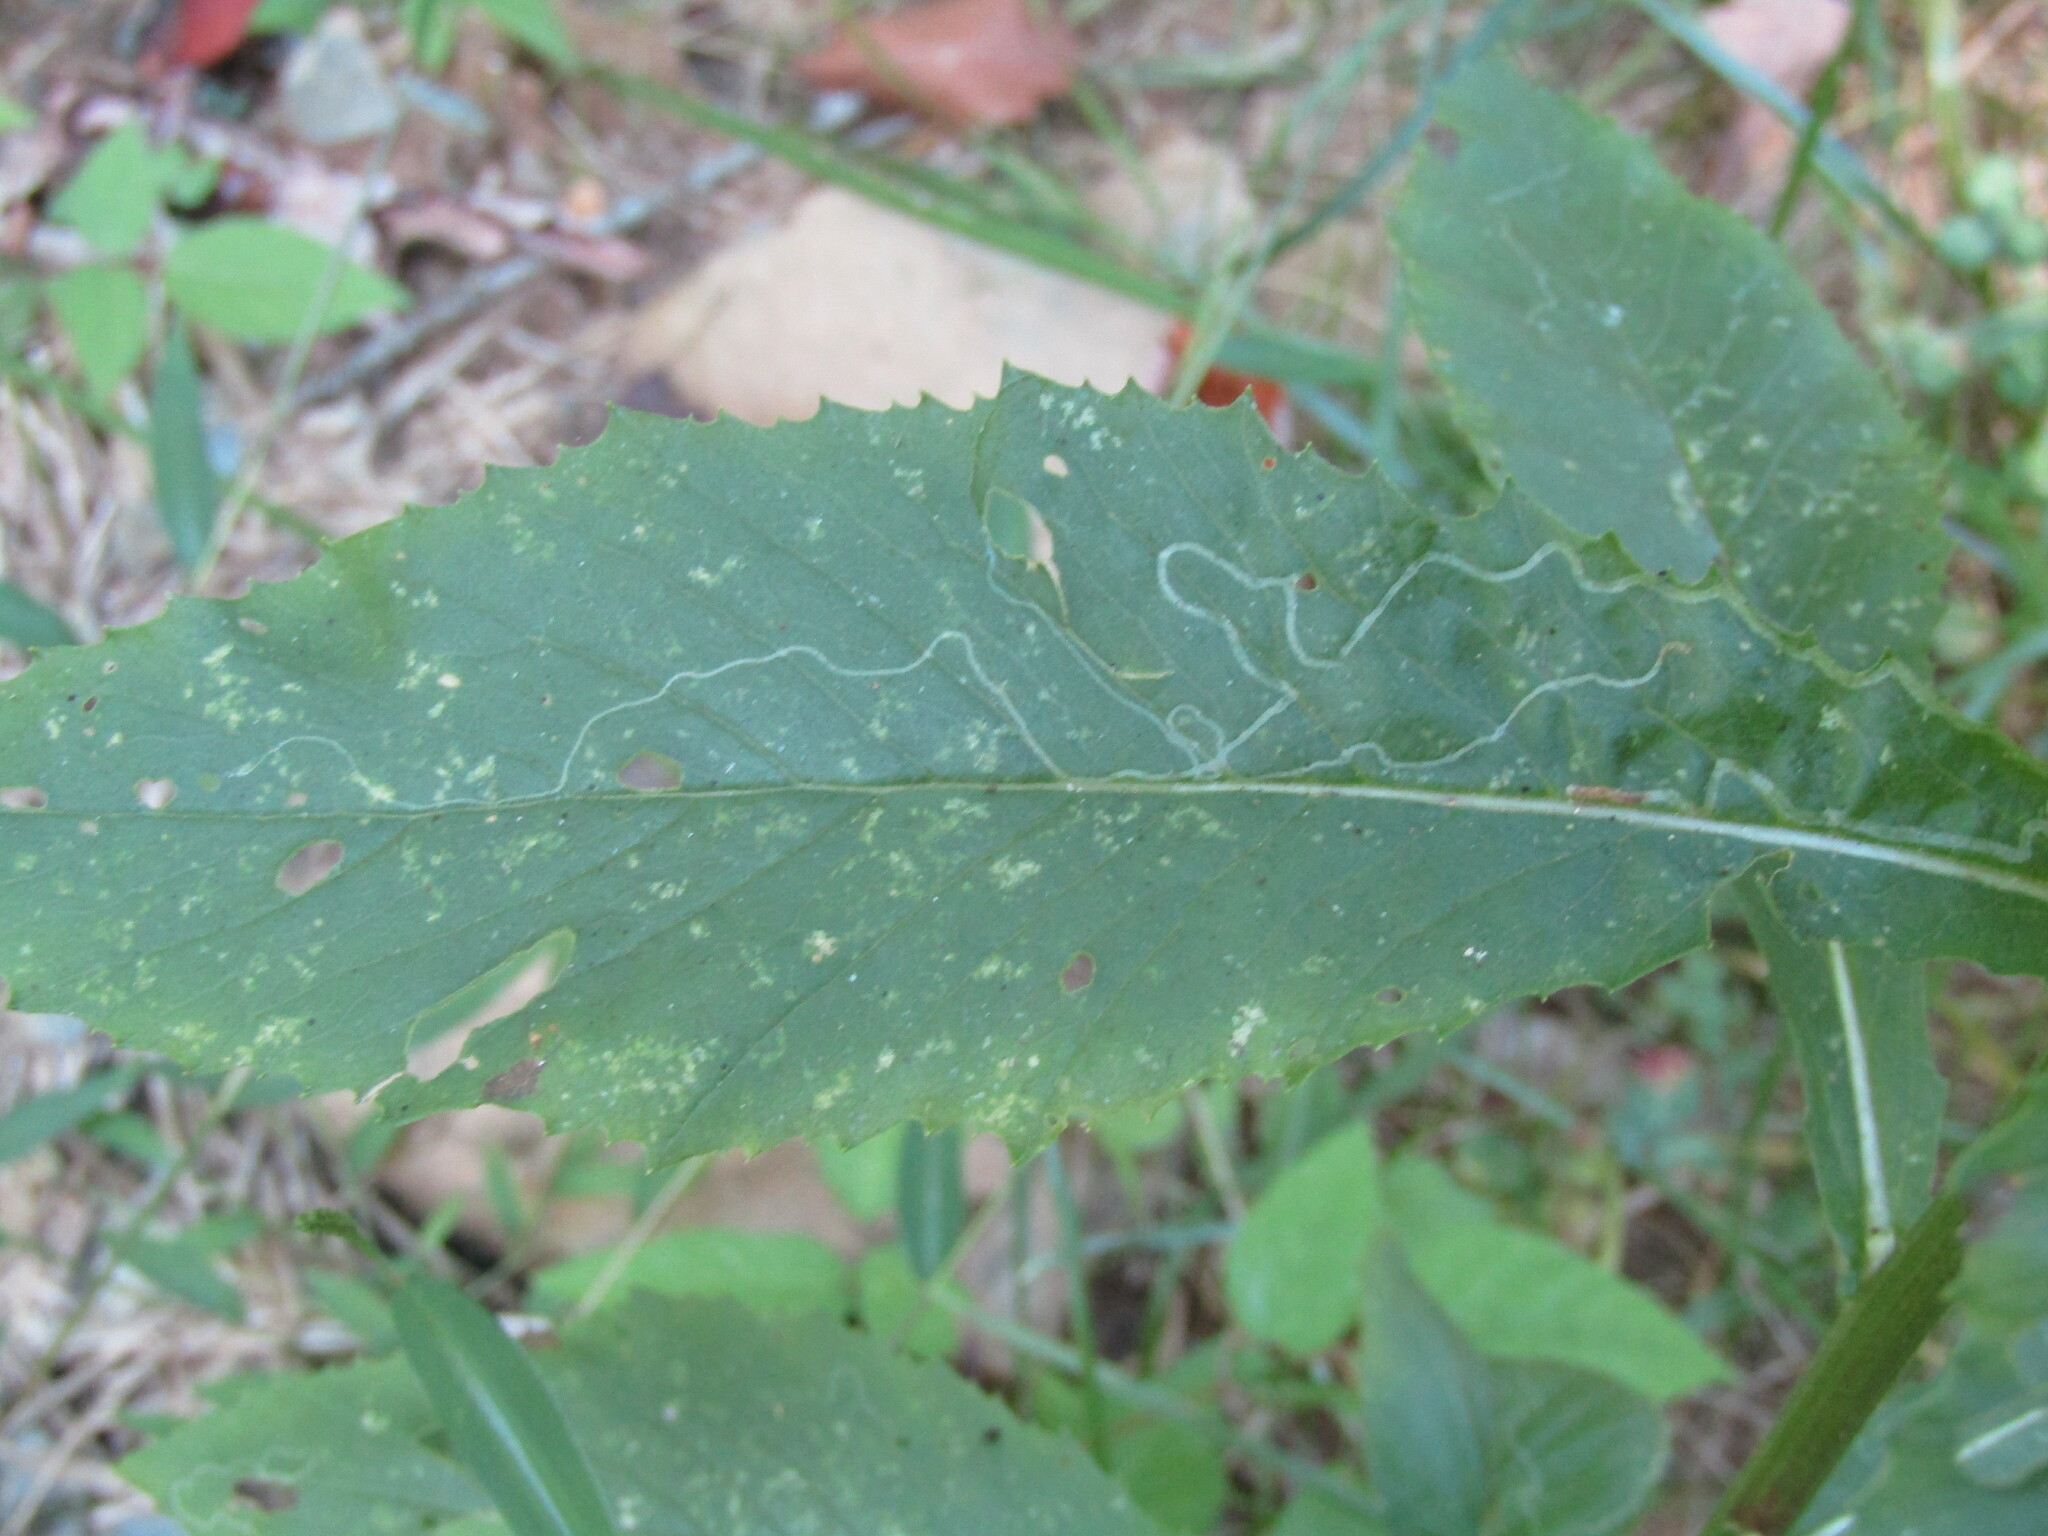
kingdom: Animalia
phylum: Arthropoda
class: Insecta
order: Lepidoptera
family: Gracillariidae
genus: Phyllocnistis
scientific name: Phyllocnistis insignis
